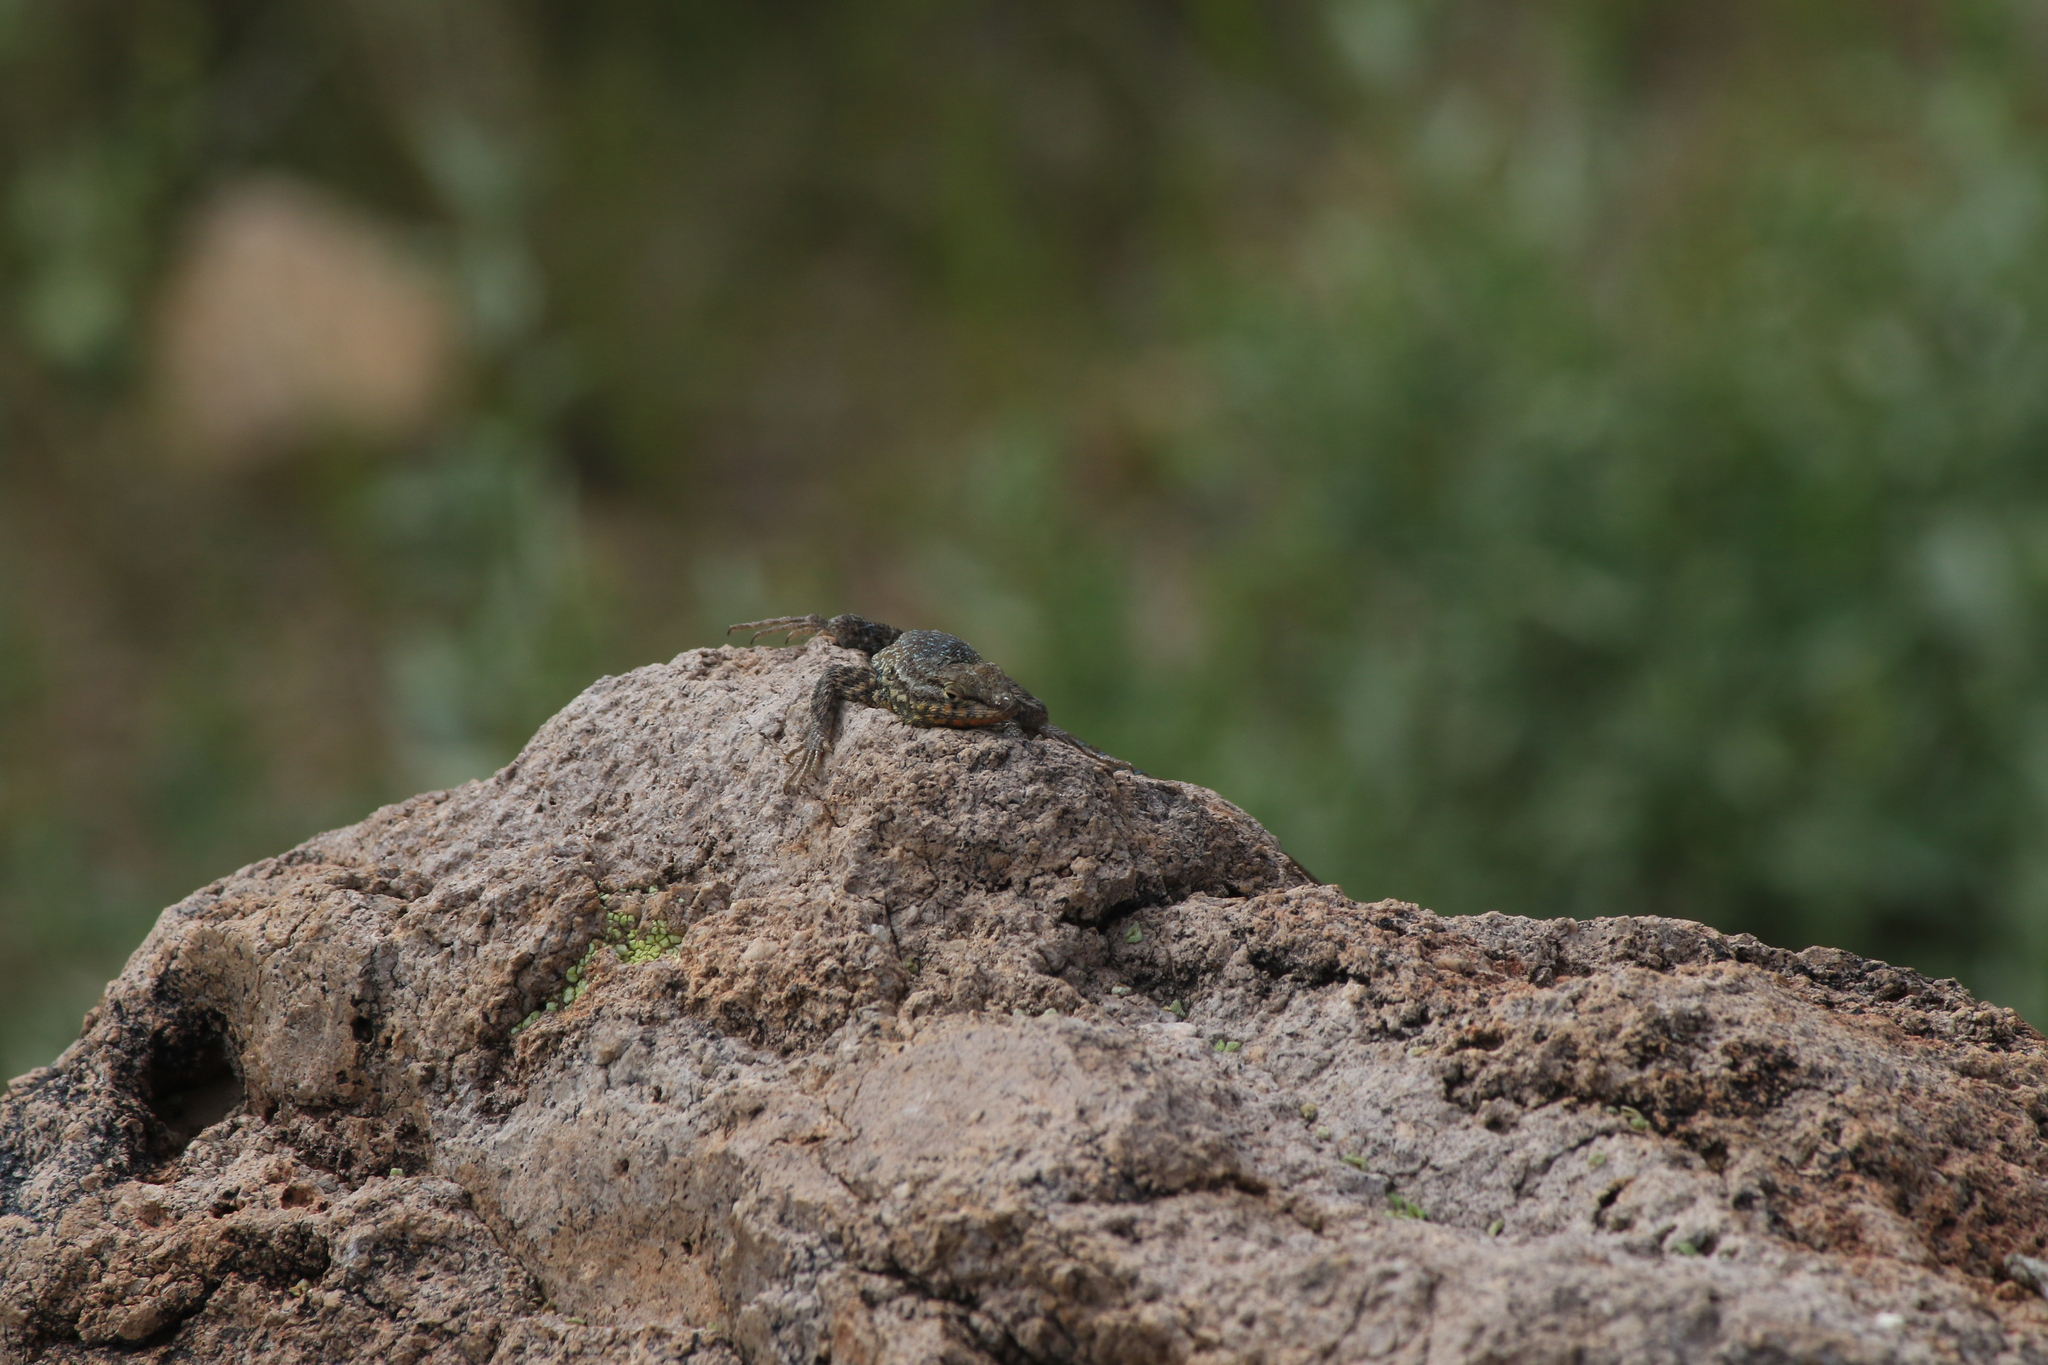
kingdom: Animalia
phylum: Chordata
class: Squamata
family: Phrynosomatidae
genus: Uta
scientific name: Uta stansburiana
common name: Side-blotched lizard
